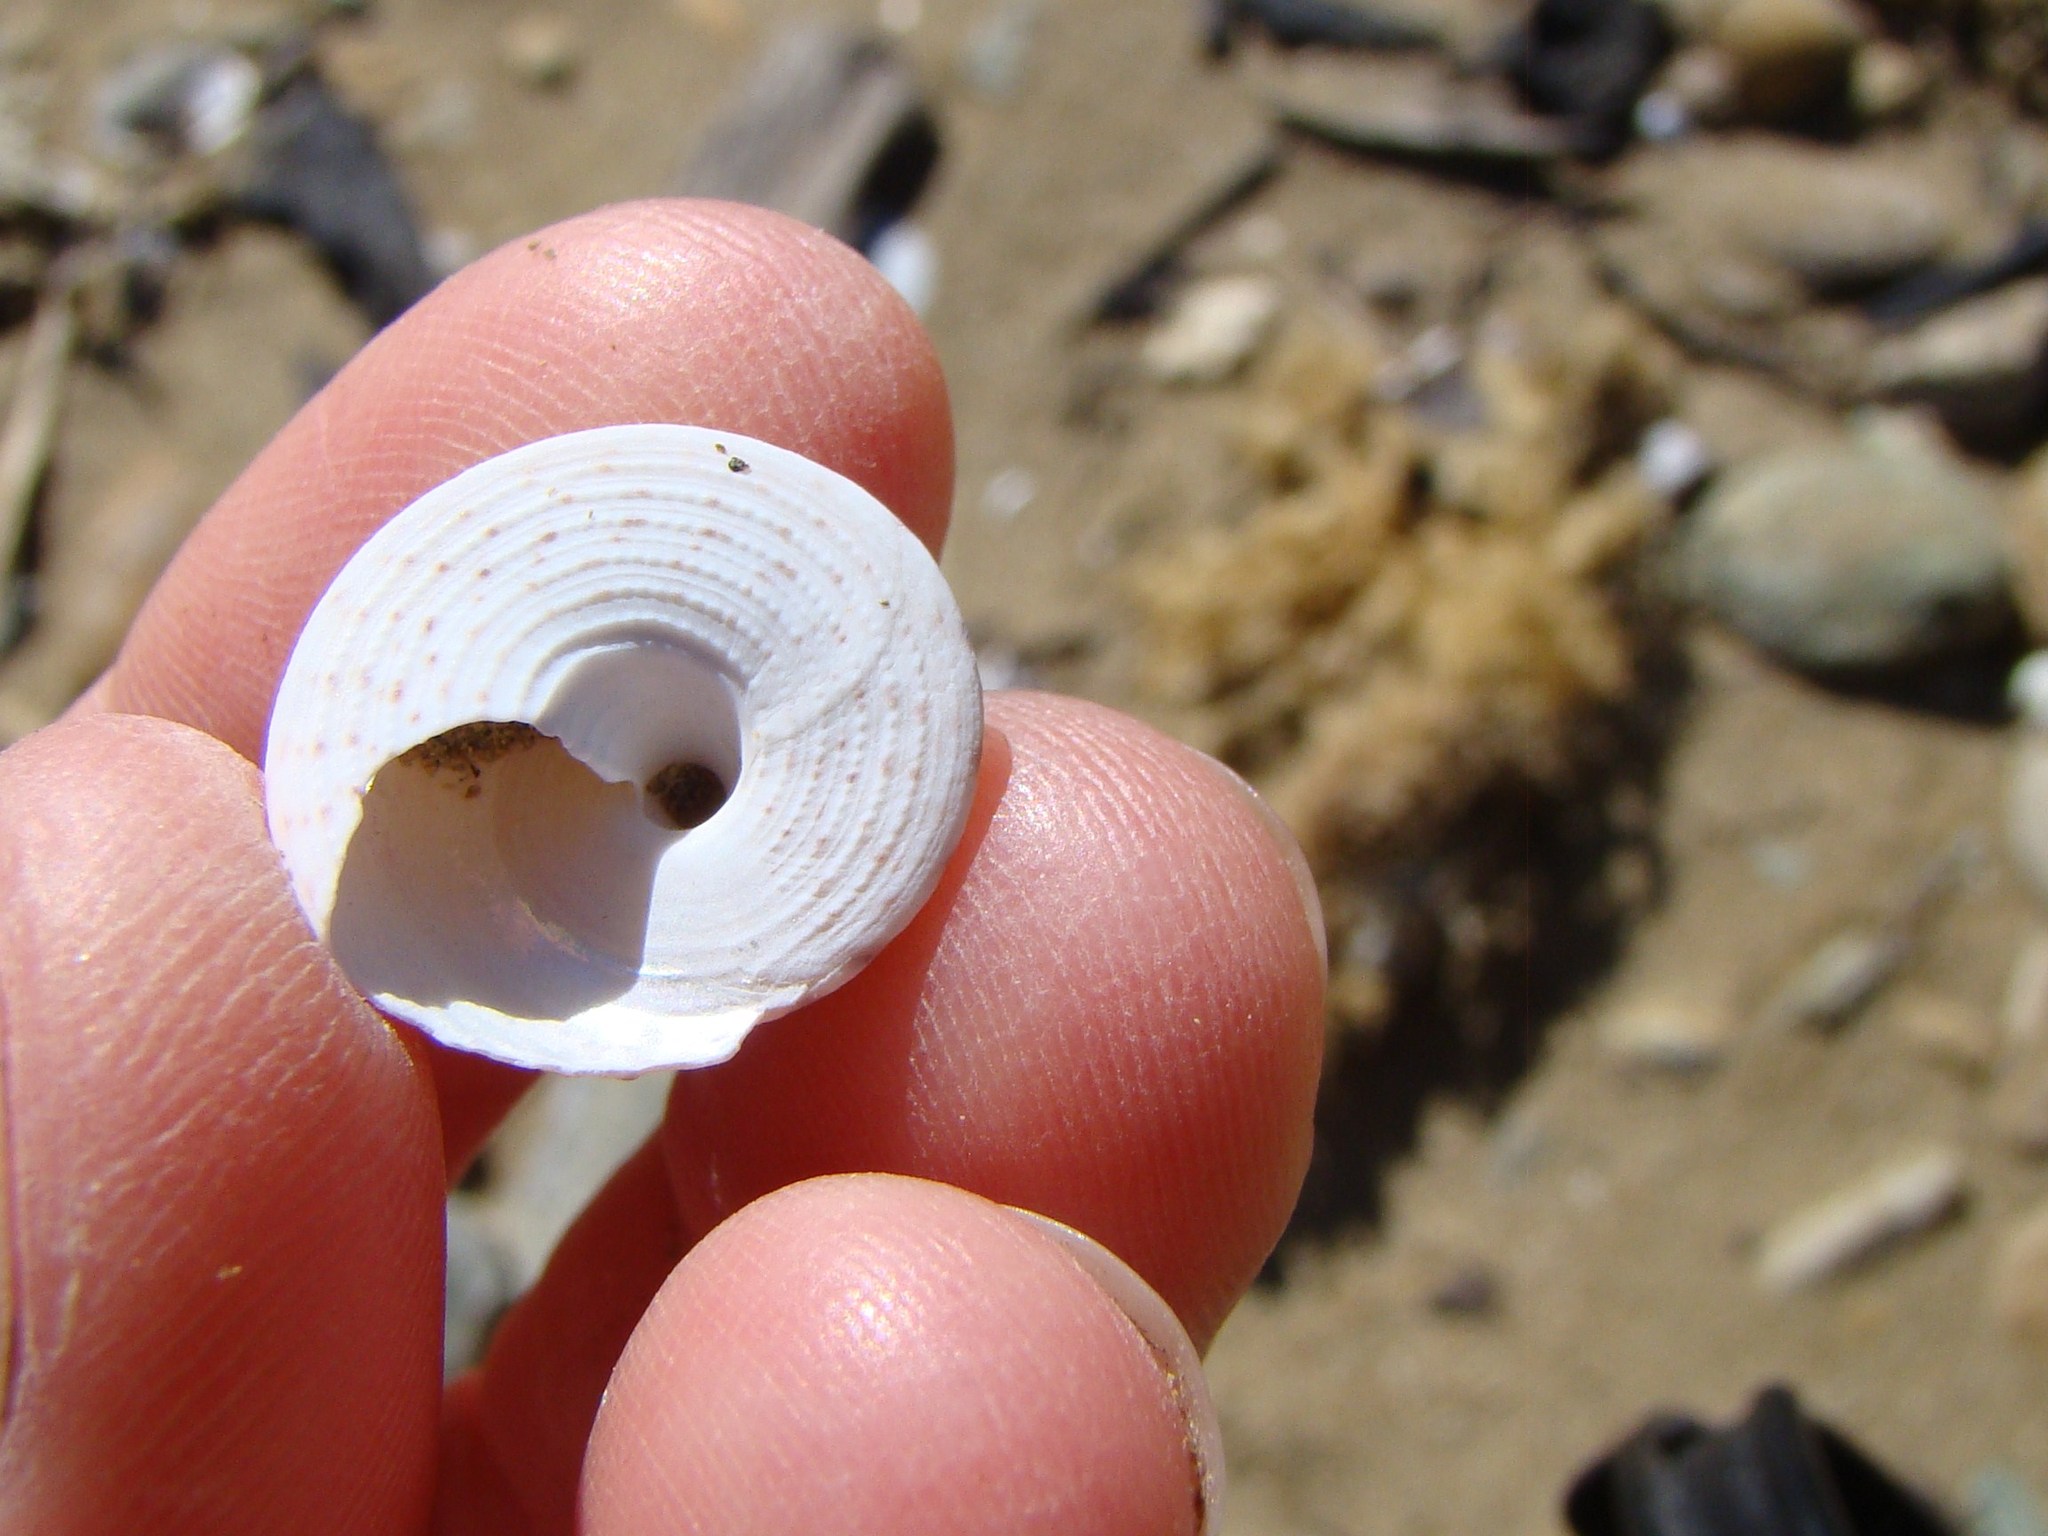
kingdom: Animalia
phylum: Mollusca
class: Gastropoda
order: Trochida
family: Trochidae
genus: Coelotrochus
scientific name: Coelotrochus tiaratus
